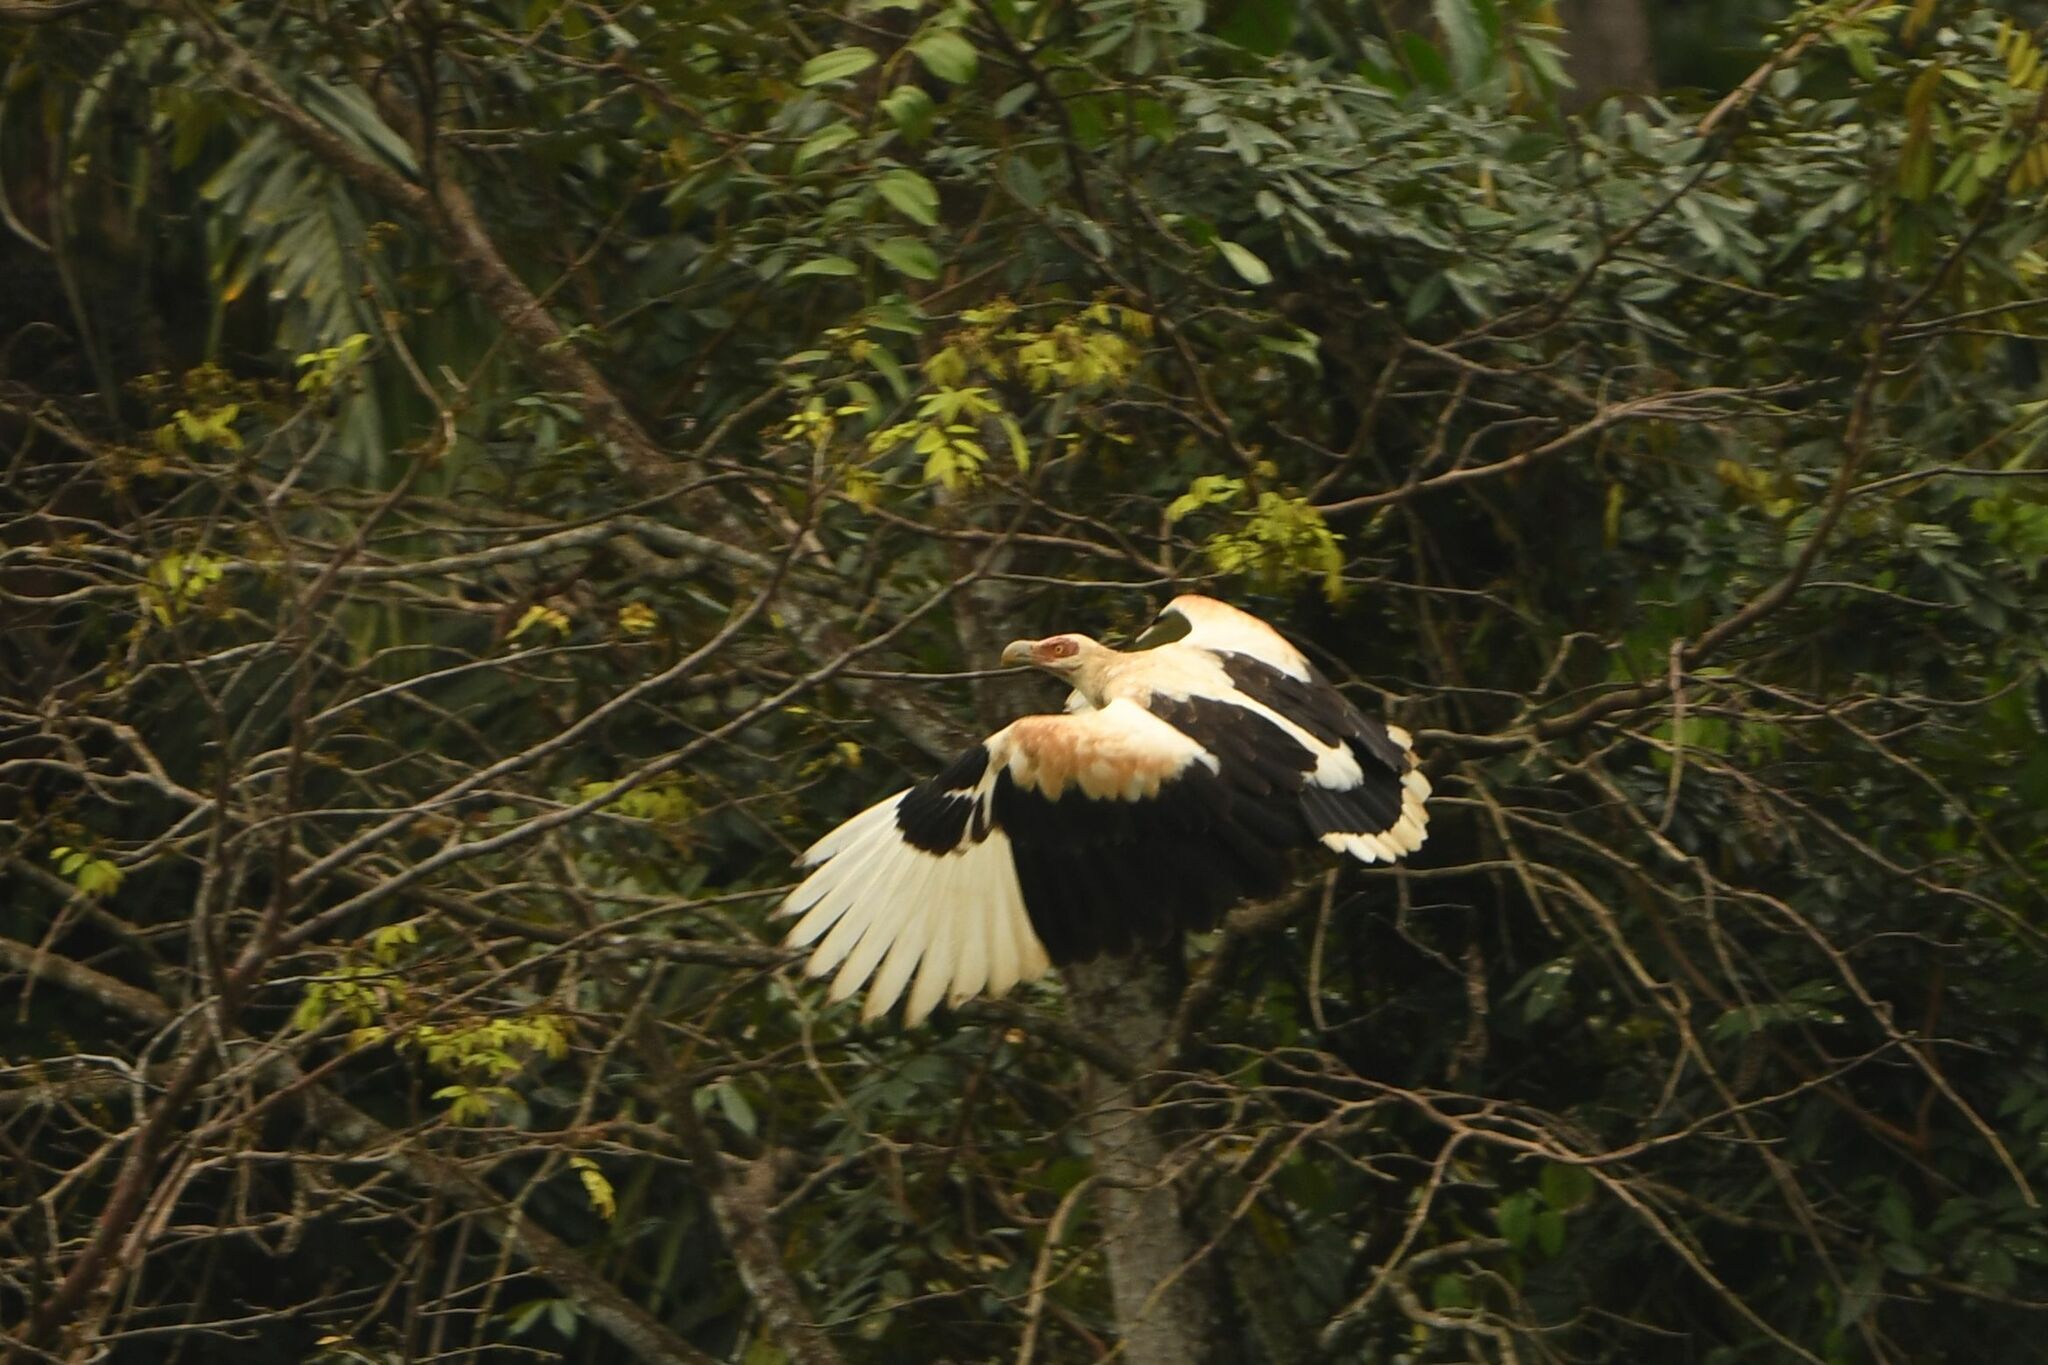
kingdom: Animalia
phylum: Chordata
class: Aves
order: Accipitriformes
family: Accipitridae
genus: Gypohierax
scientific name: Gypohierax angolensis
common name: Palm-nut vulture
